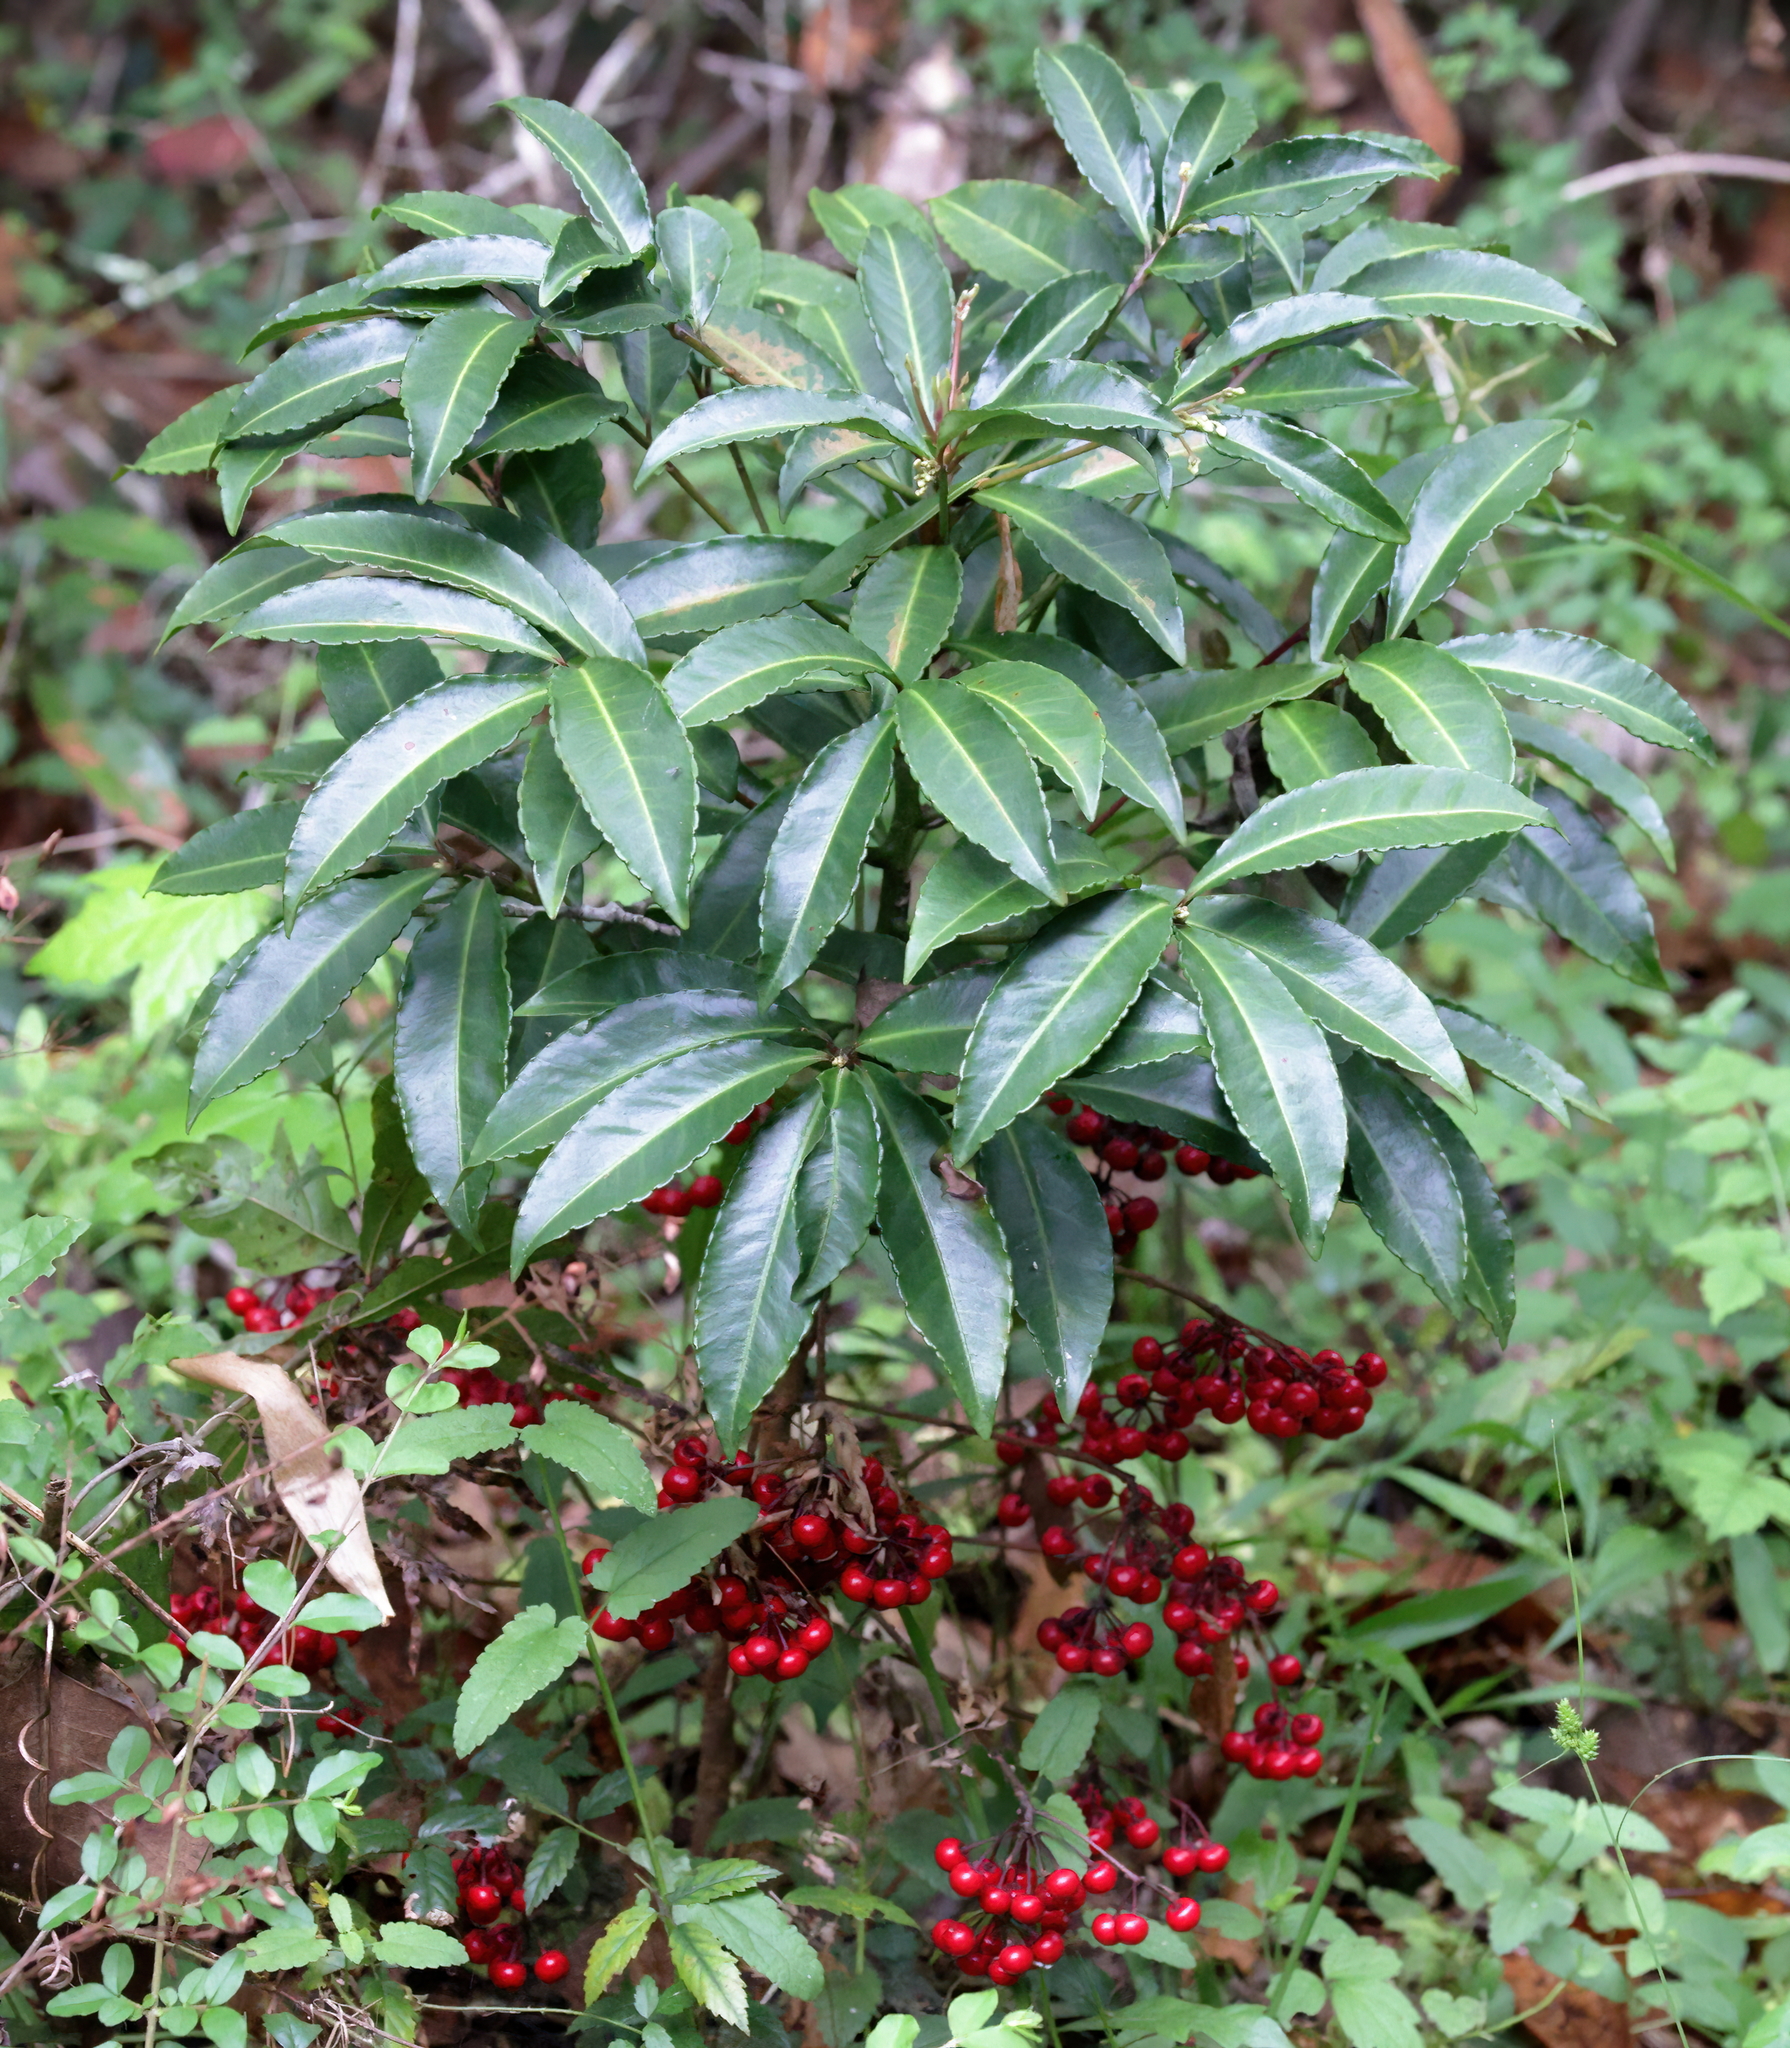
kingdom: Plantae
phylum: Tracheophyta
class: Magnoliopsida
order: Ericales
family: Primulaceae
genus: Ardisia
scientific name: Ardisia crenata
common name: Hen's eyes
